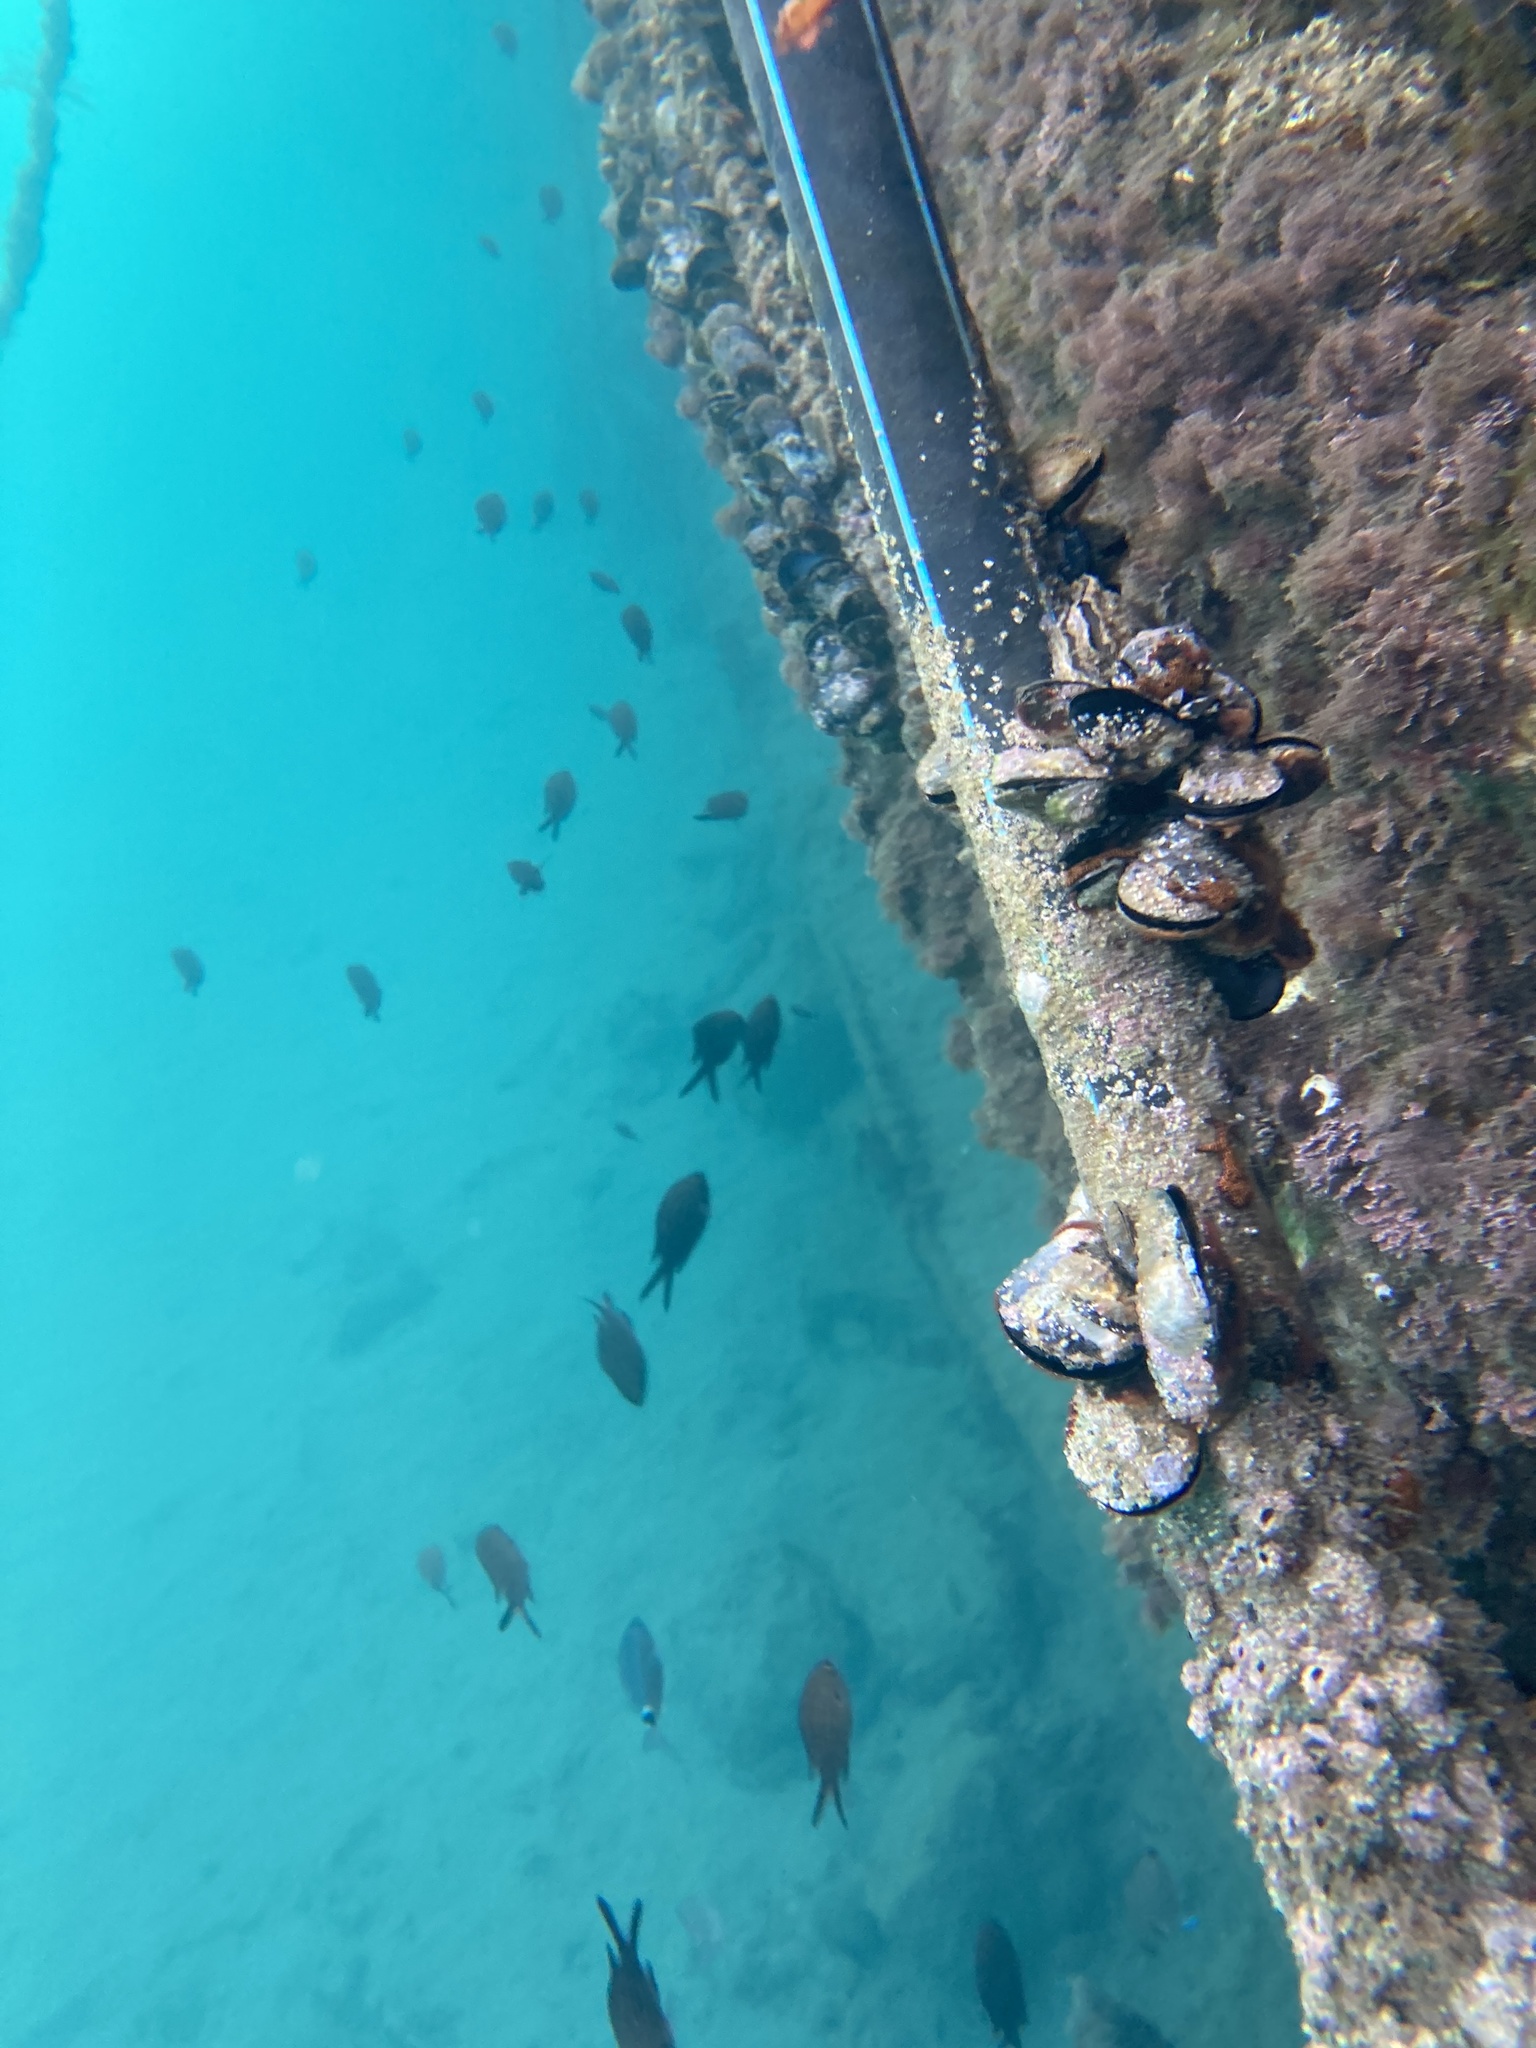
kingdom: Animalia
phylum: Chordata
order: Perciformes
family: Sparidae
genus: Oblada
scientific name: Oblada melanura
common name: Saddled seabream
